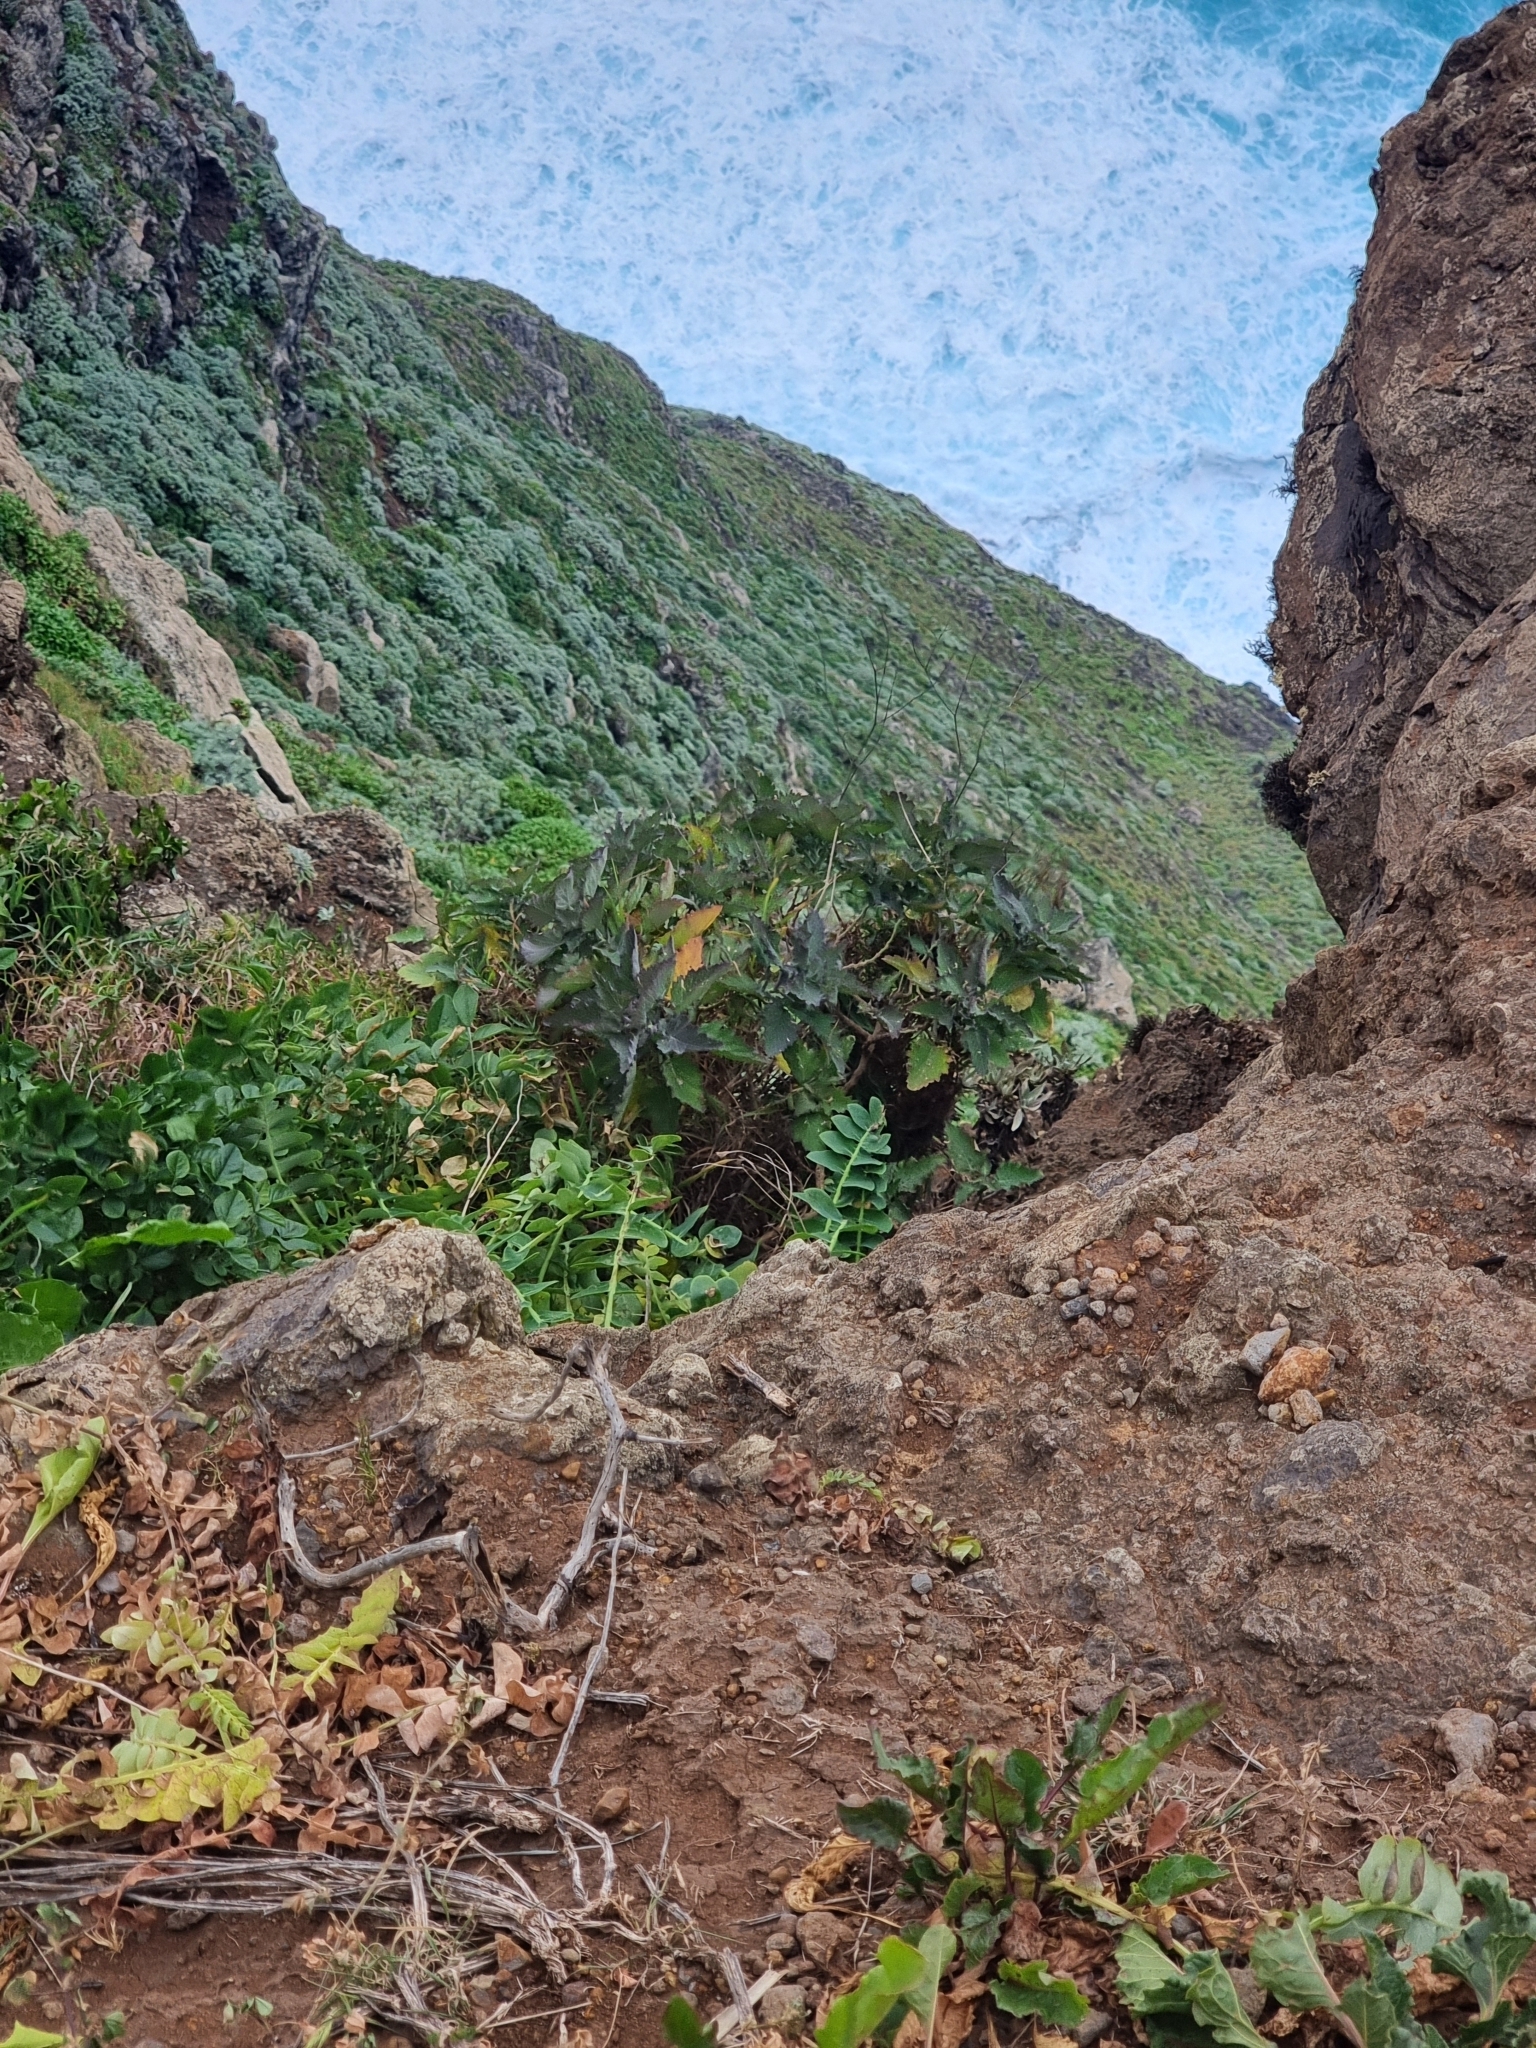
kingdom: Plantae
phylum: Tracheophyta
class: Magnoliopsida
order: Brassicales
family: Brassicaceae
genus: Crambe
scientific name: Crambe fruticosa
